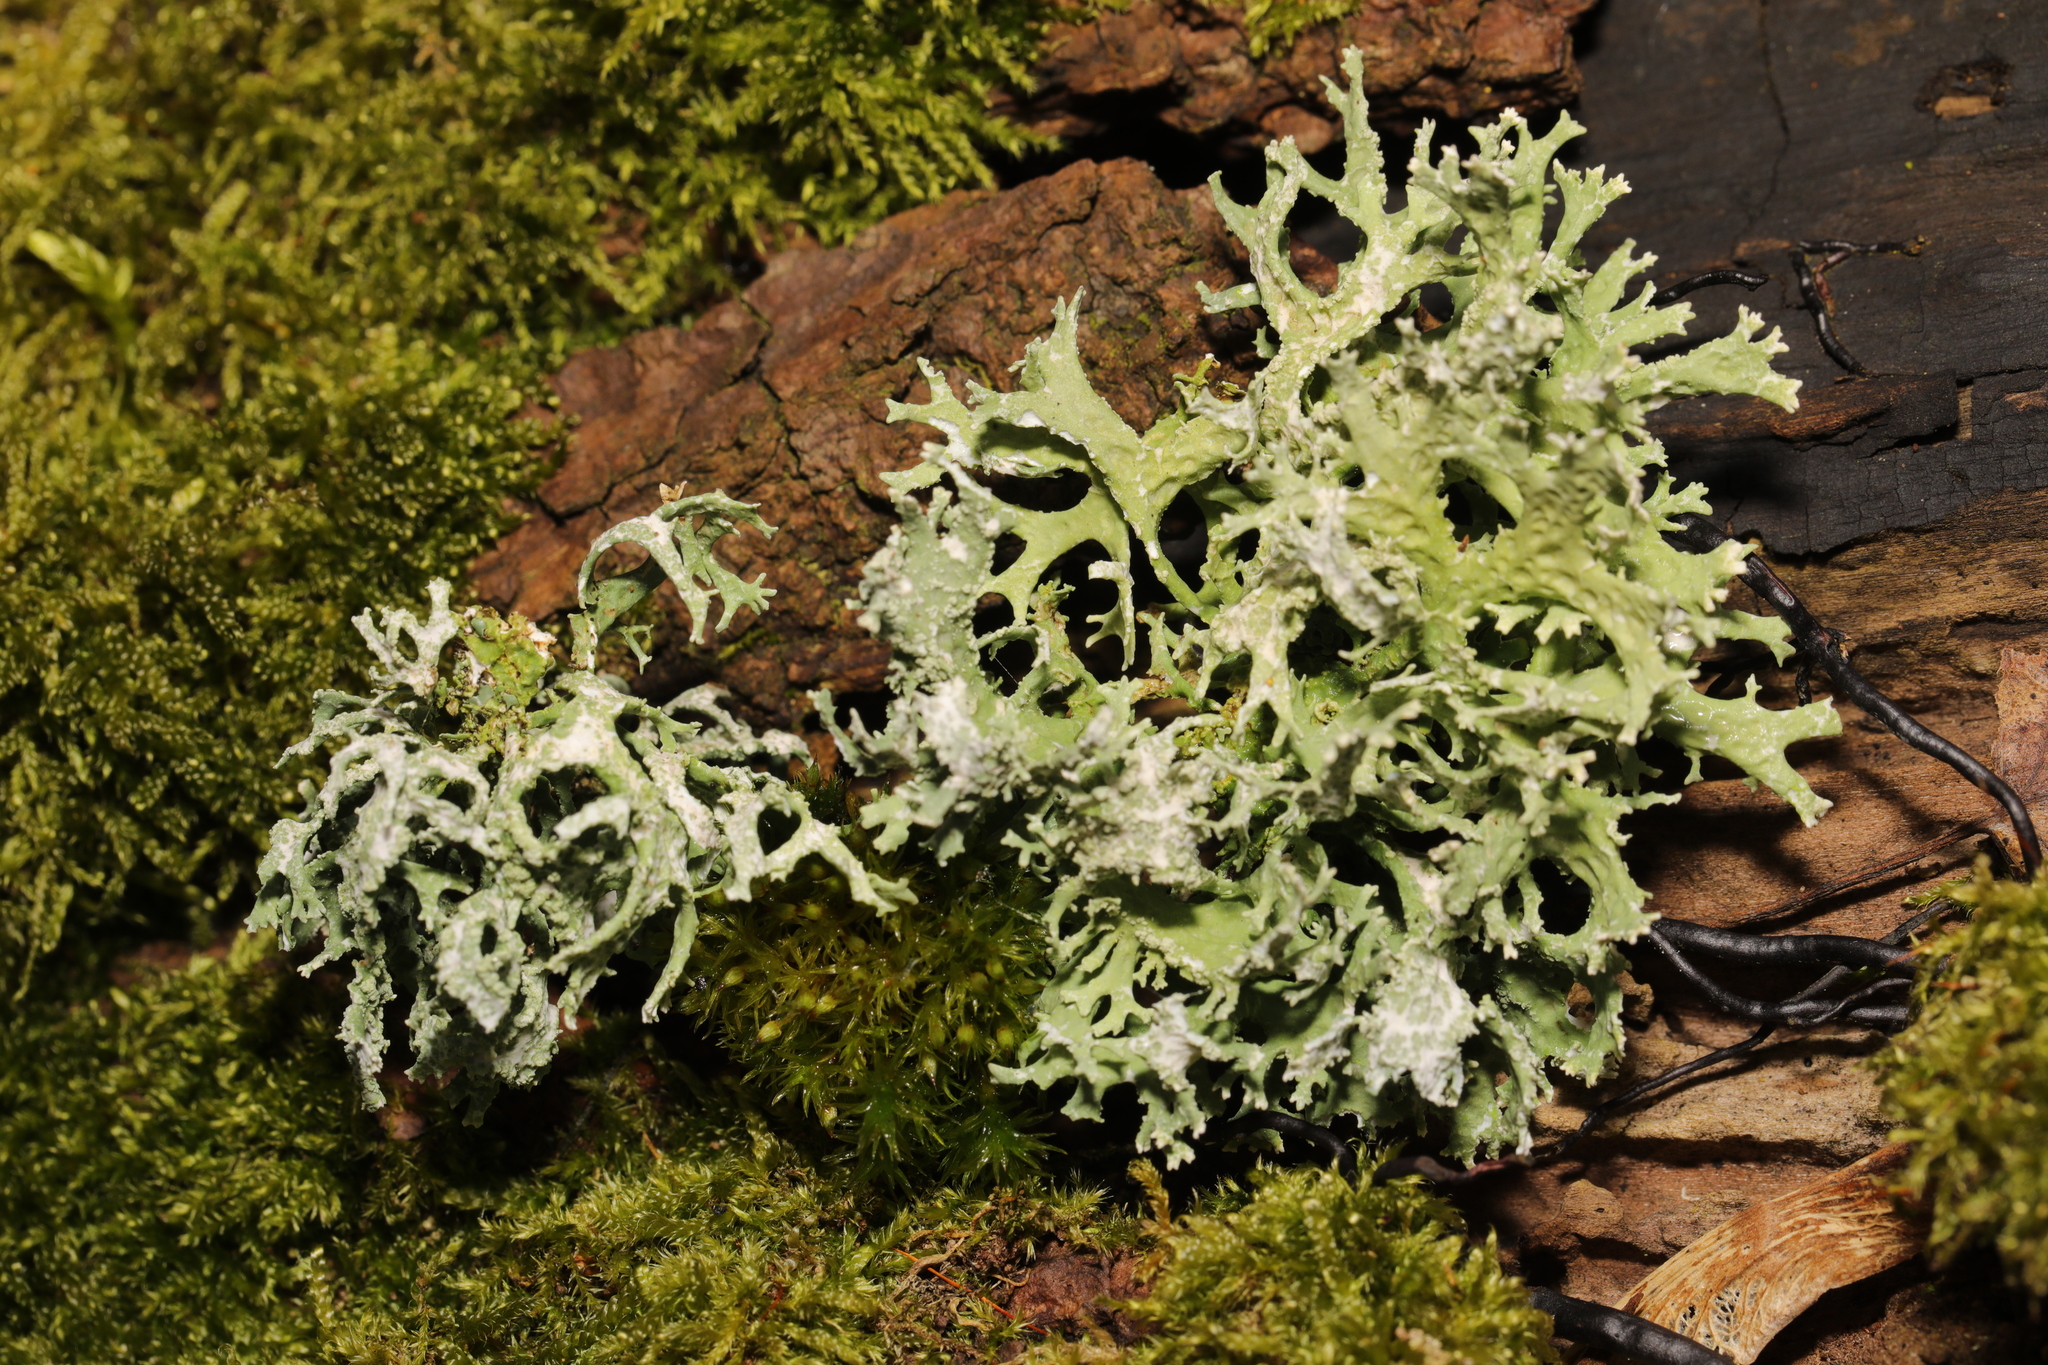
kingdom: Fungi
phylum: Ascomycota
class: Lecanoromycetes
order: Lecanorales
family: Parmeliaceae
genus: Evernia
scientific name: Evernia prunastri
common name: Oak moss
